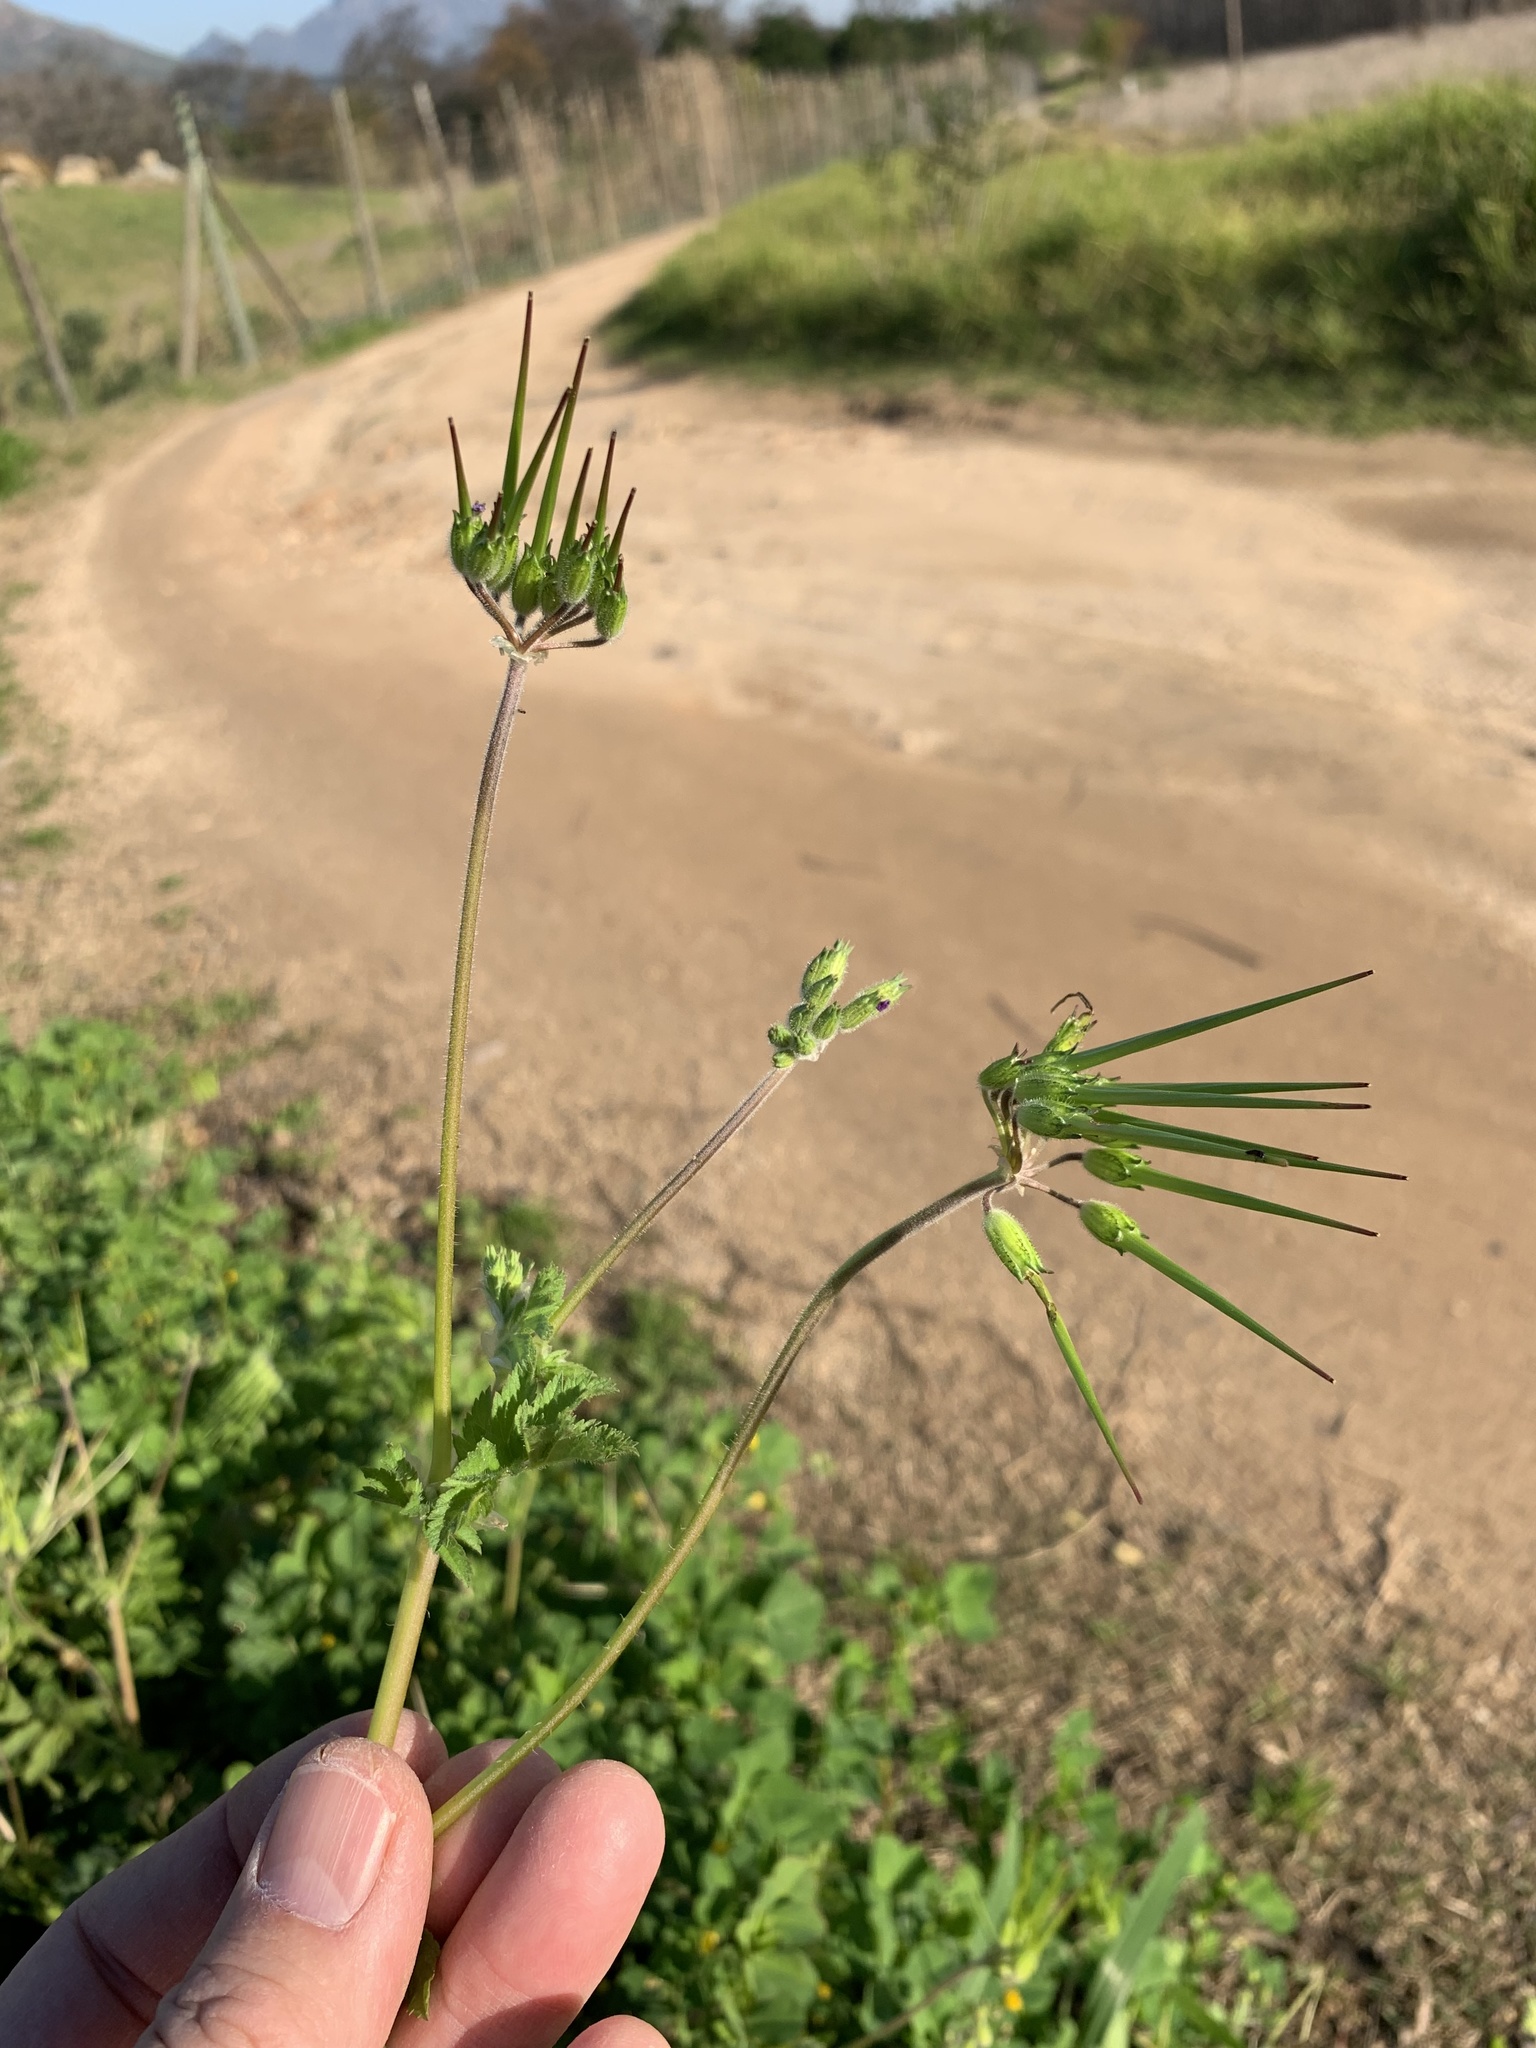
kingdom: Plantae
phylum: Tracheophyta
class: Magnoliopsida
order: Geraniales
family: Geraniaceae
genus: Erodium
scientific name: Erodium moschatum
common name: Musk stork's-bill
